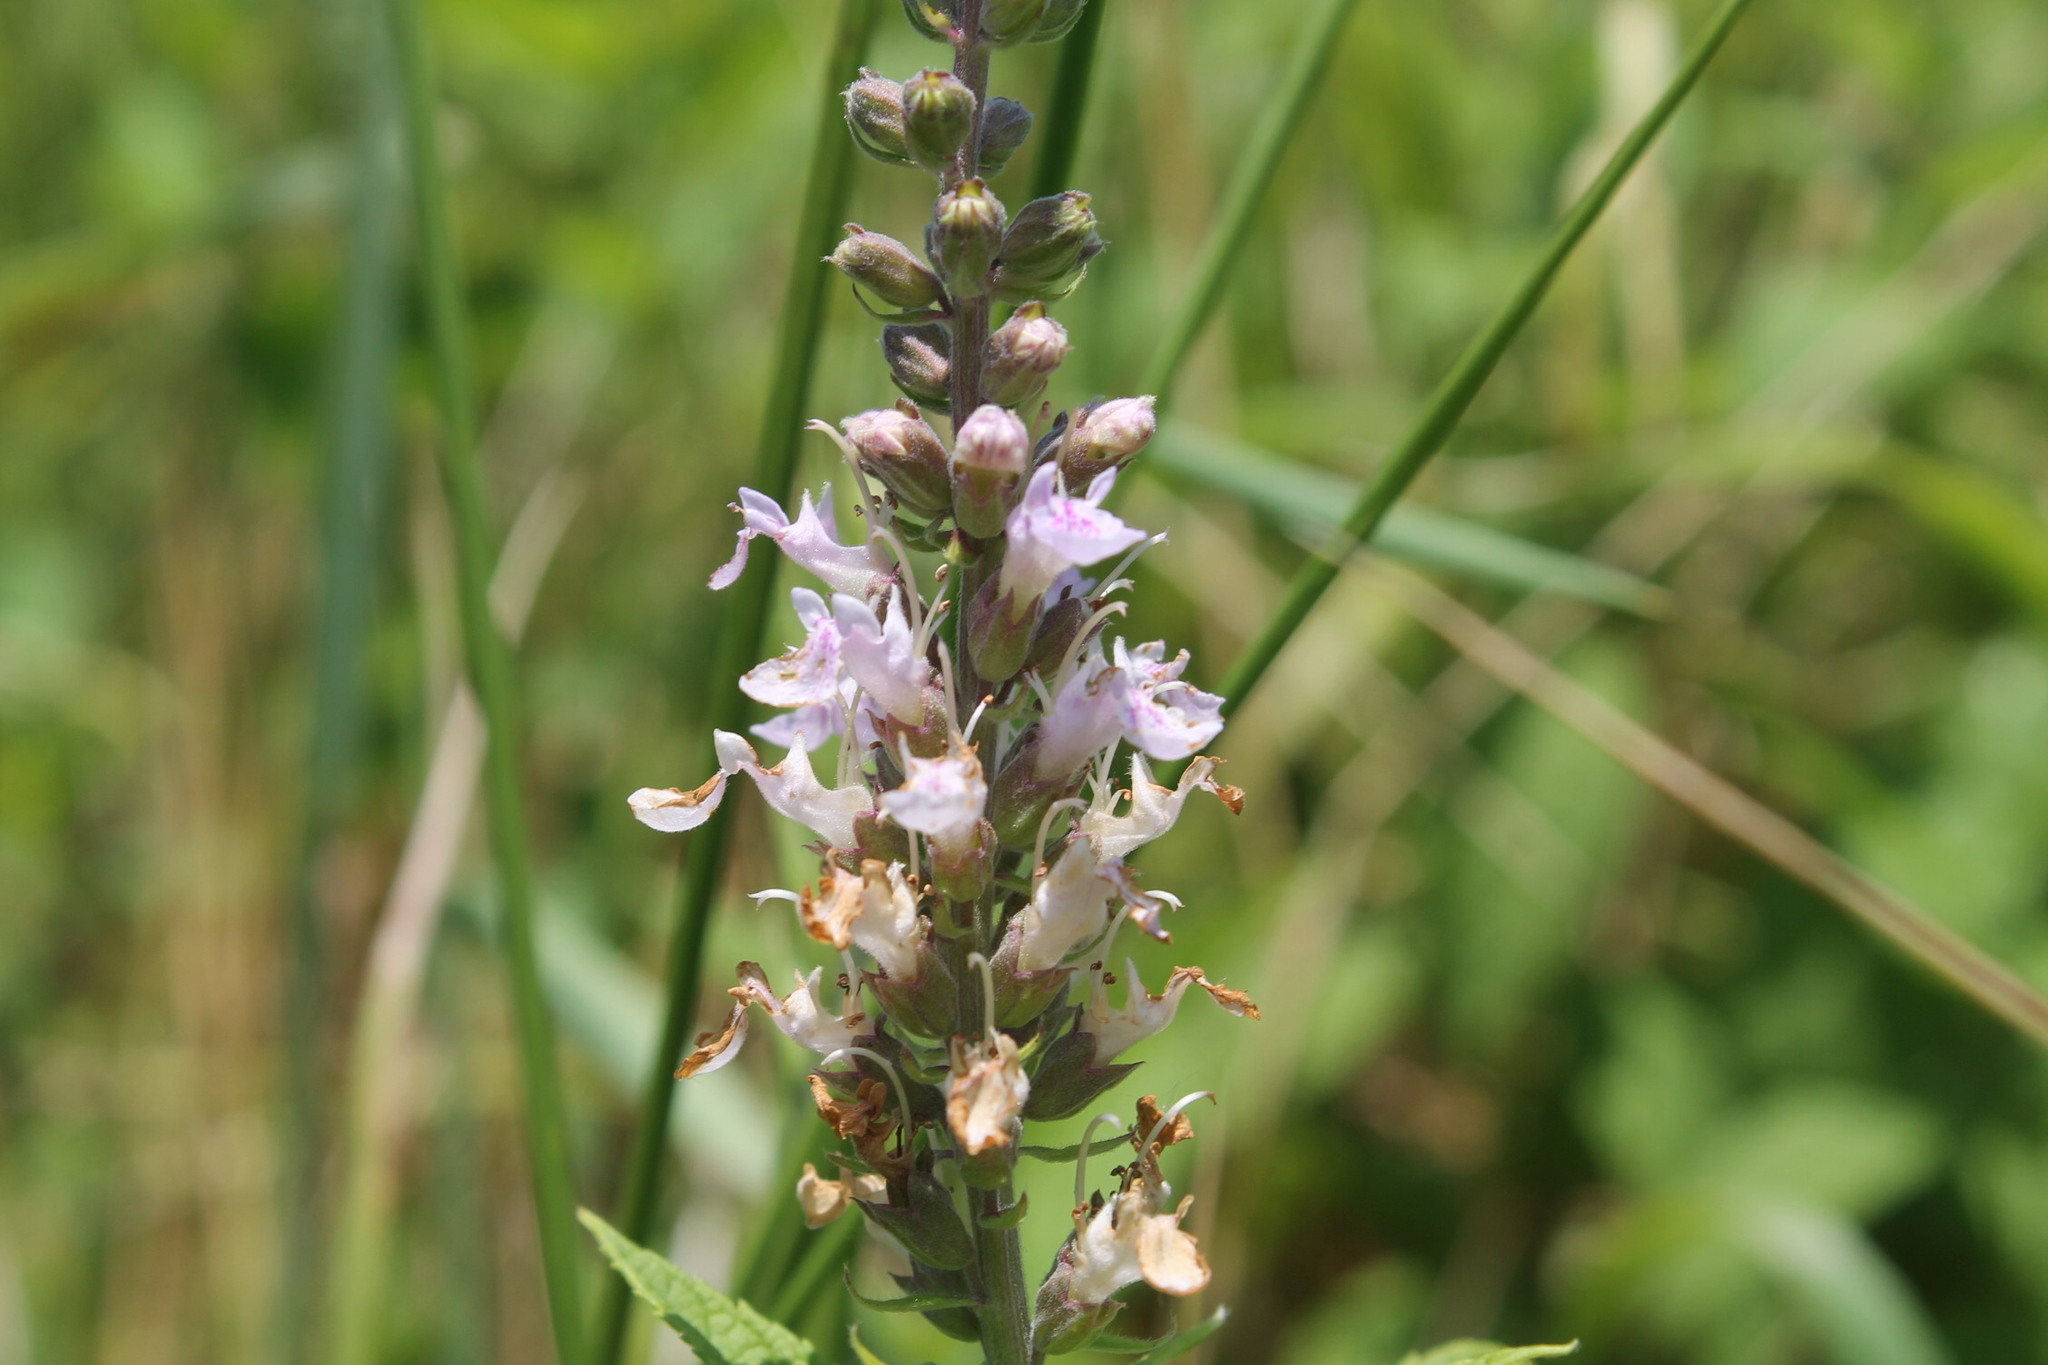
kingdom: Plantae
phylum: Tracheophyta
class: Magnoliopsida
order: Lamiales
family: Lamiaceae
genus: Teucrium
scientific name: Teucrium canadense
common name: American germander
